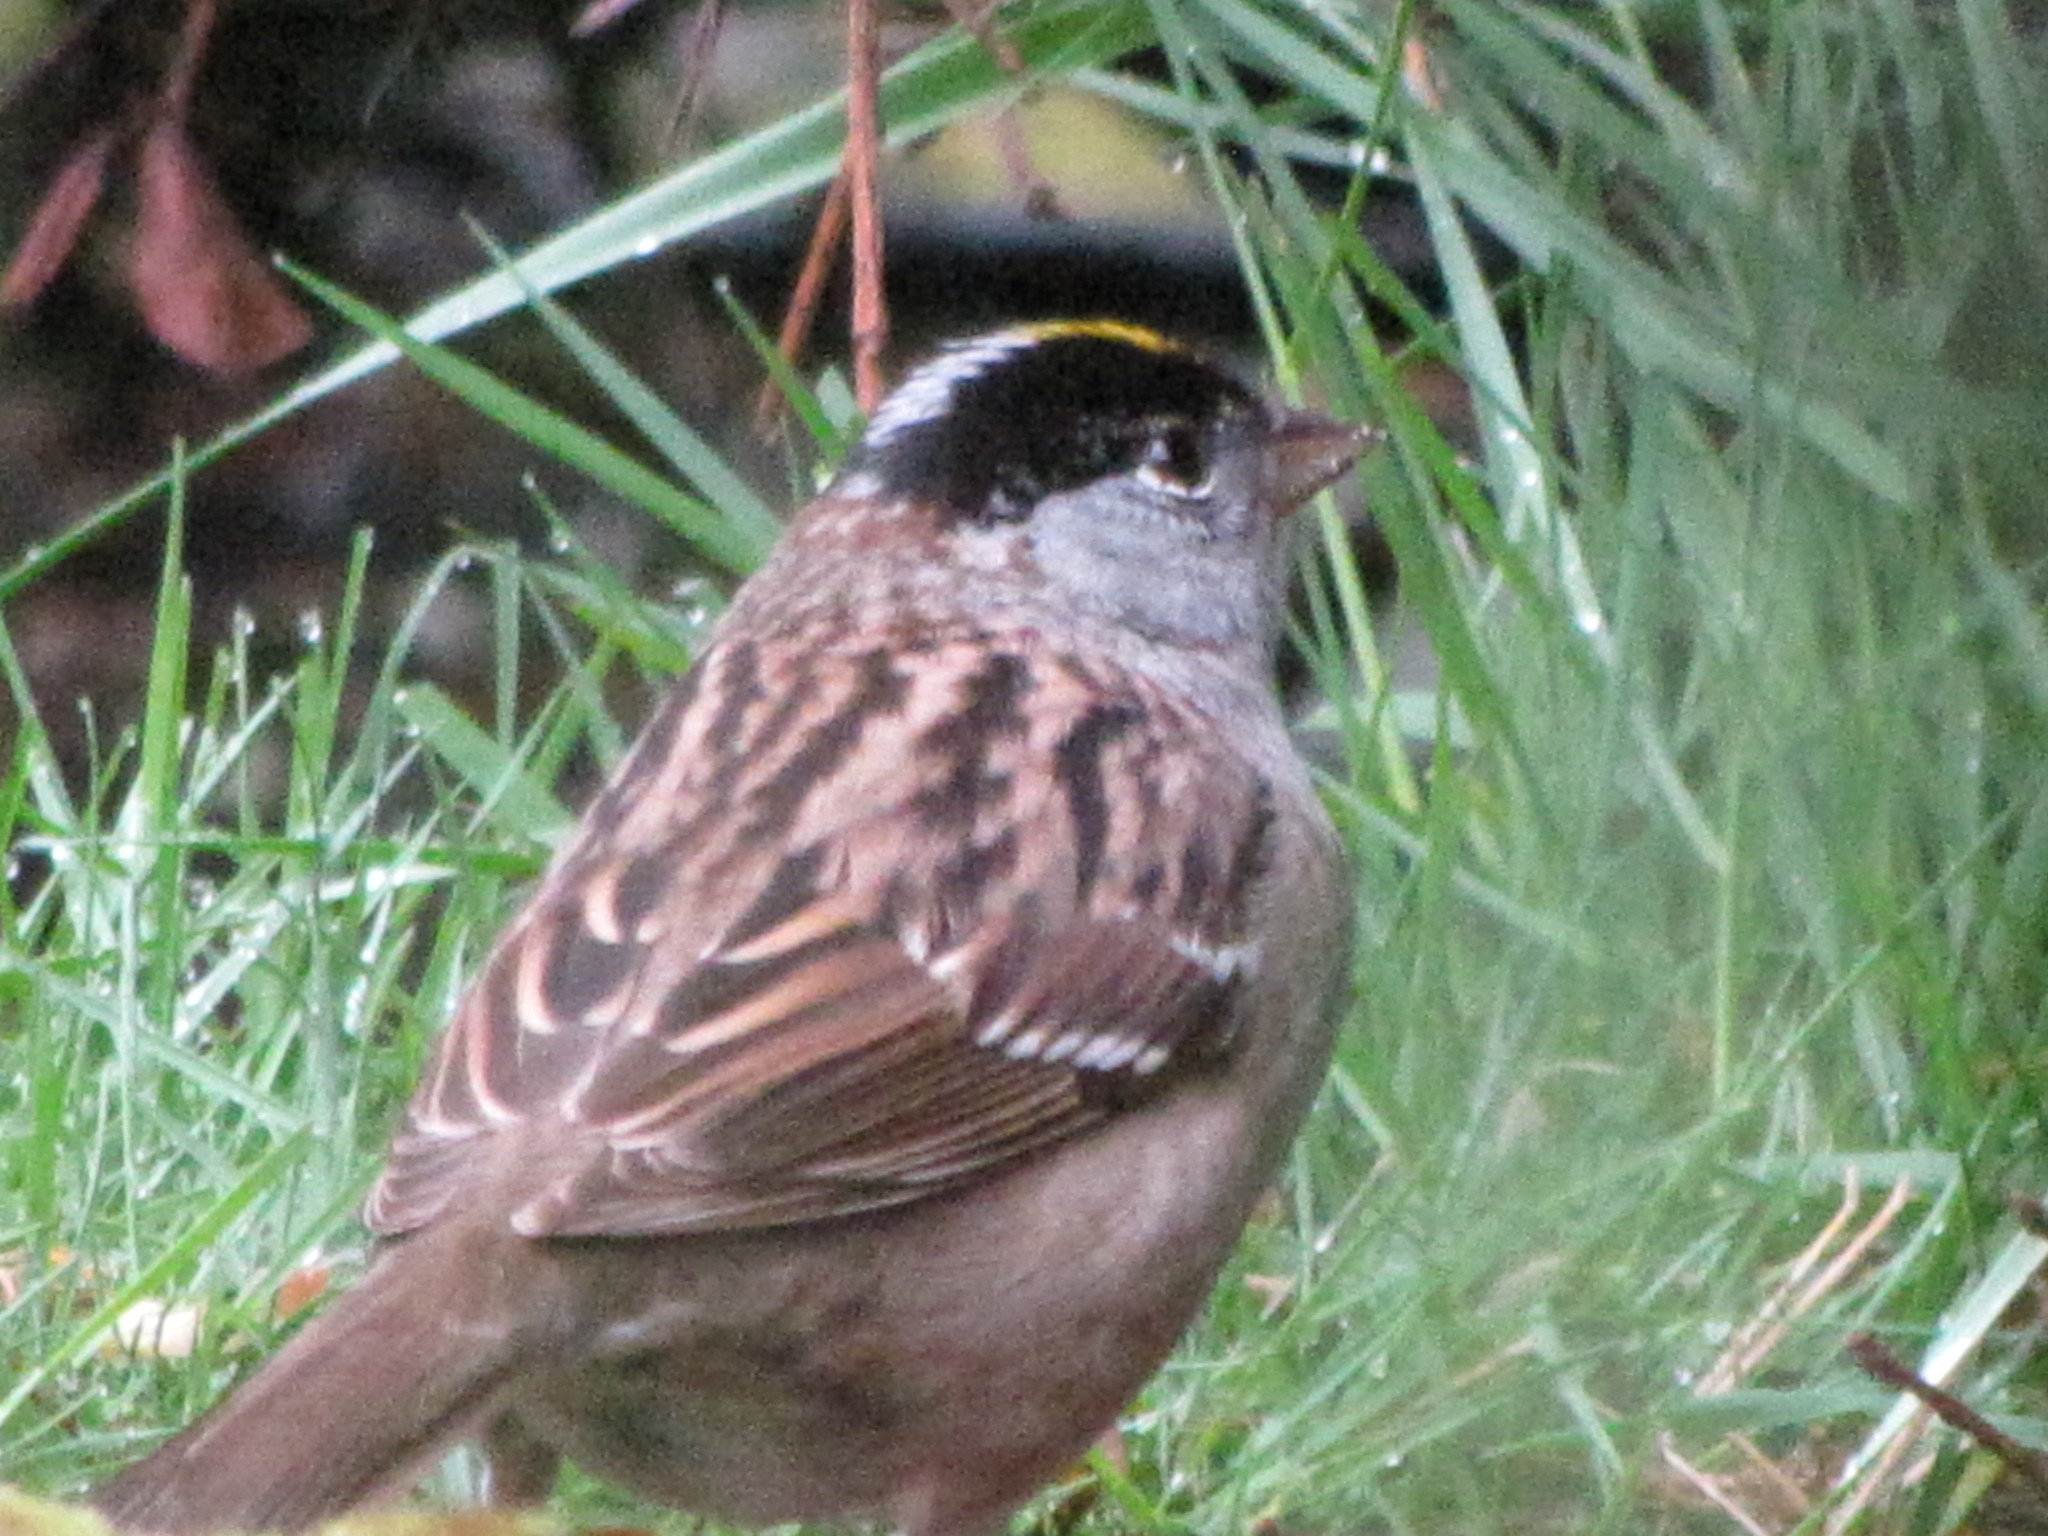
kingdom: Animalia
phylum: Chordata
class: Aves
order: Passeriformes
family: Passerellidae
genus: Zonotrichia
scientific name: Zonotrichia atricapilla
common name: Golden-crowned sparrow
